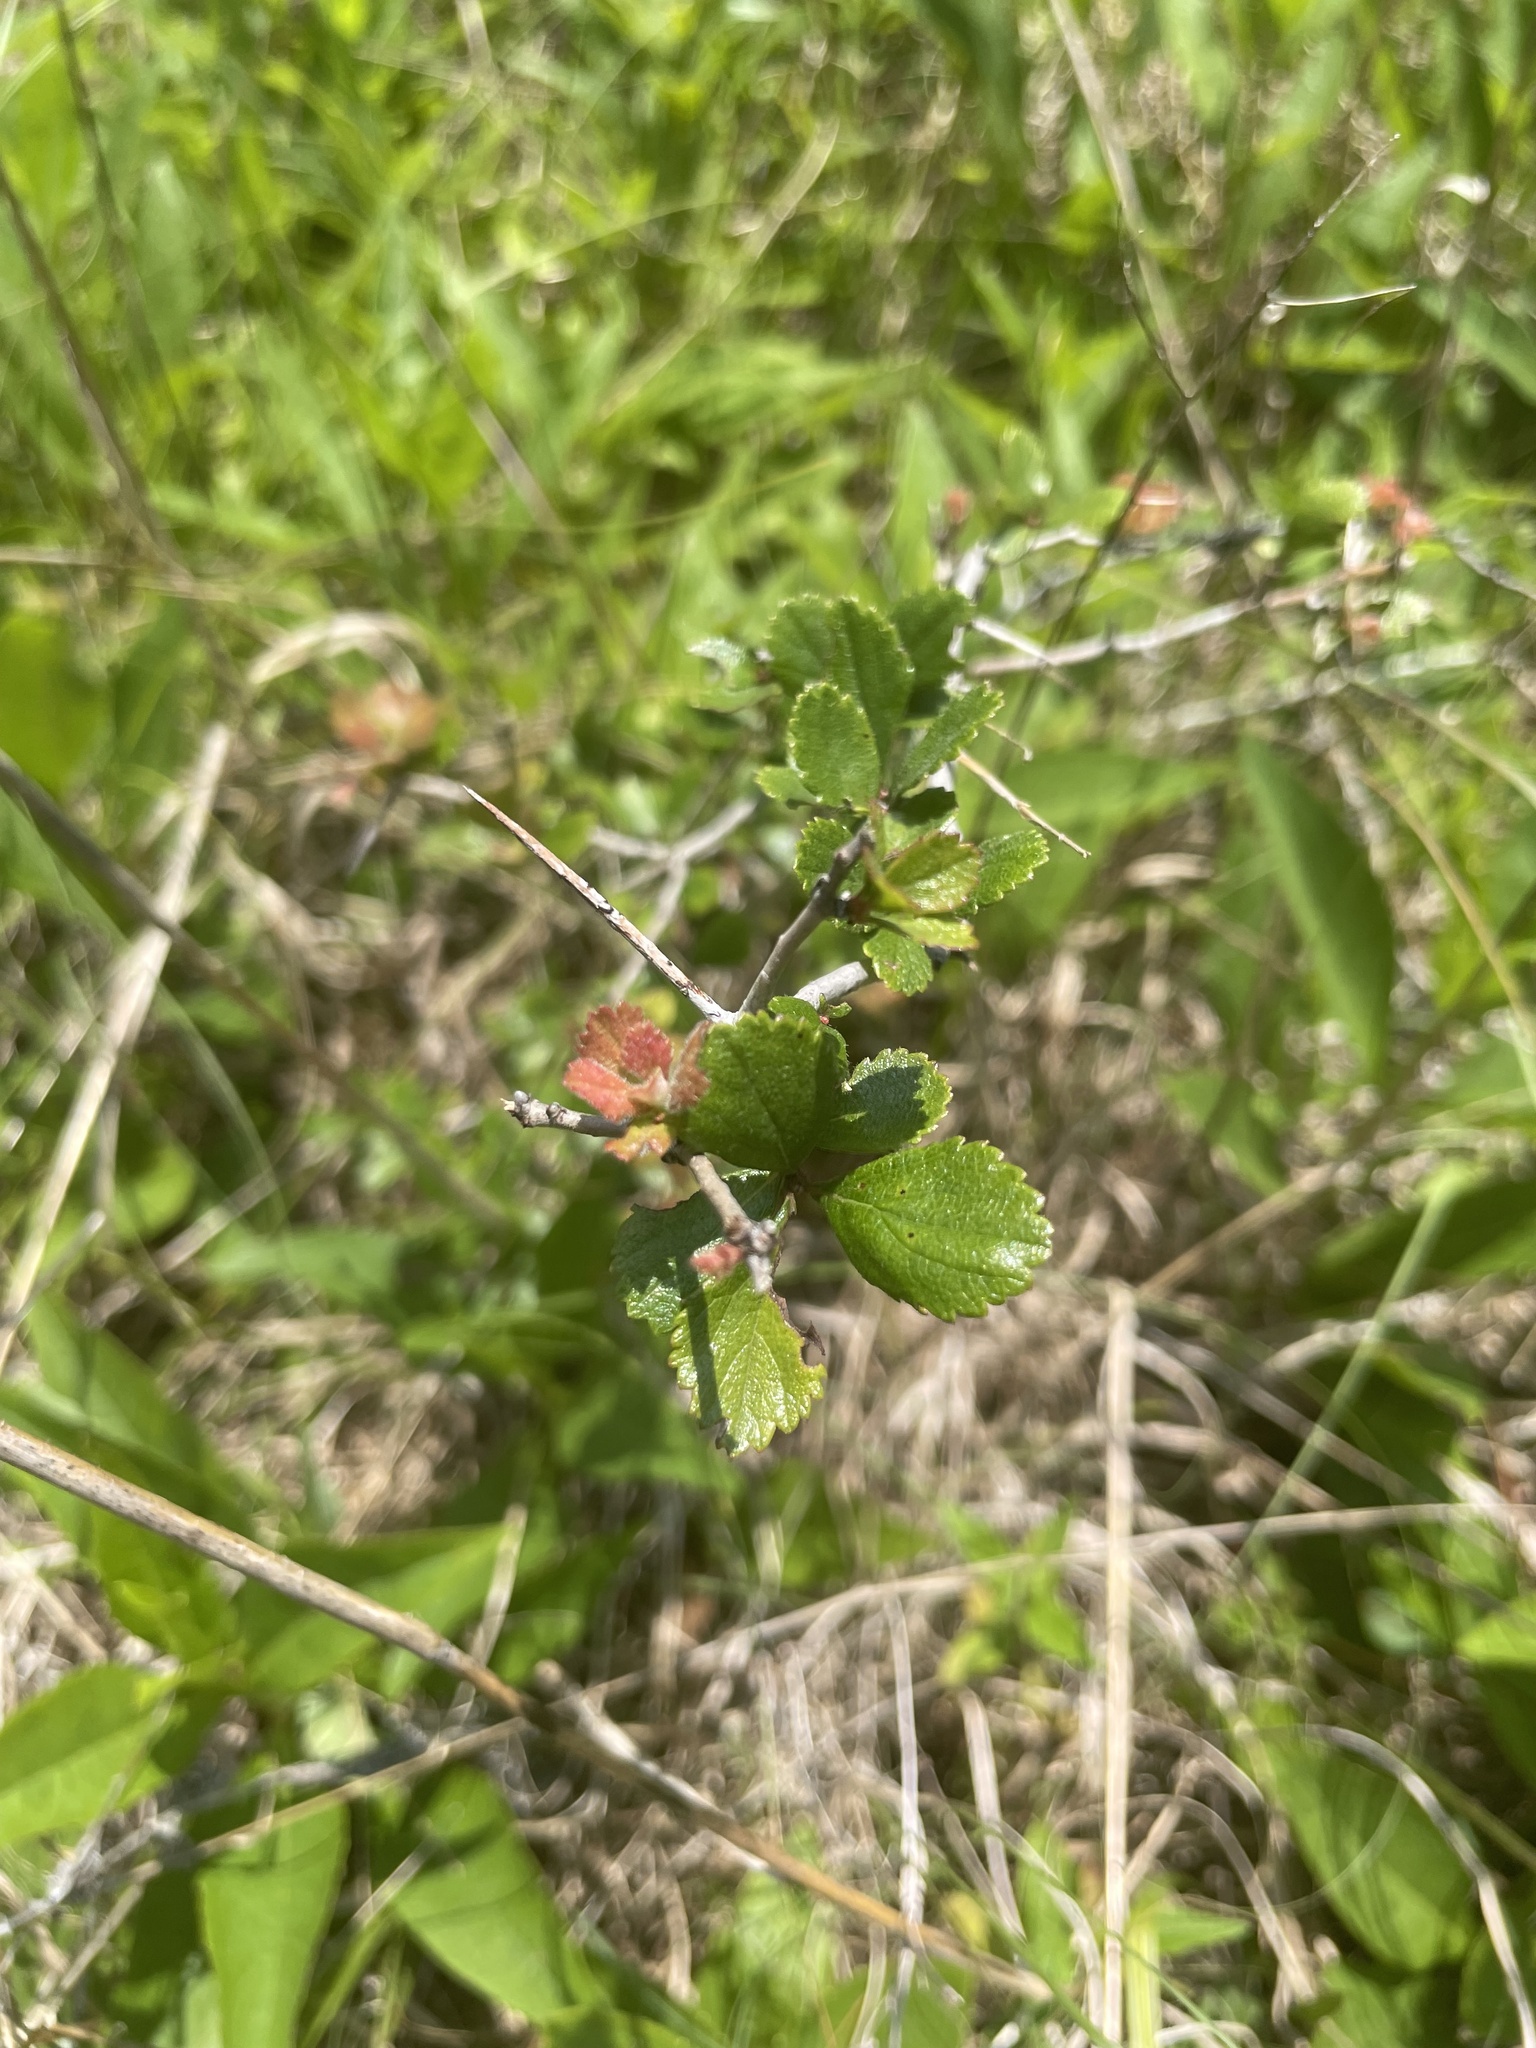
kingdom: Plantae
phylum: Tracheophyta
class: Magnoliopsida
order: Rosales
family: Rosaceae
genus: Crataegus
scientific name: Crataegus uniflora
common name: One-flower hawthorn
